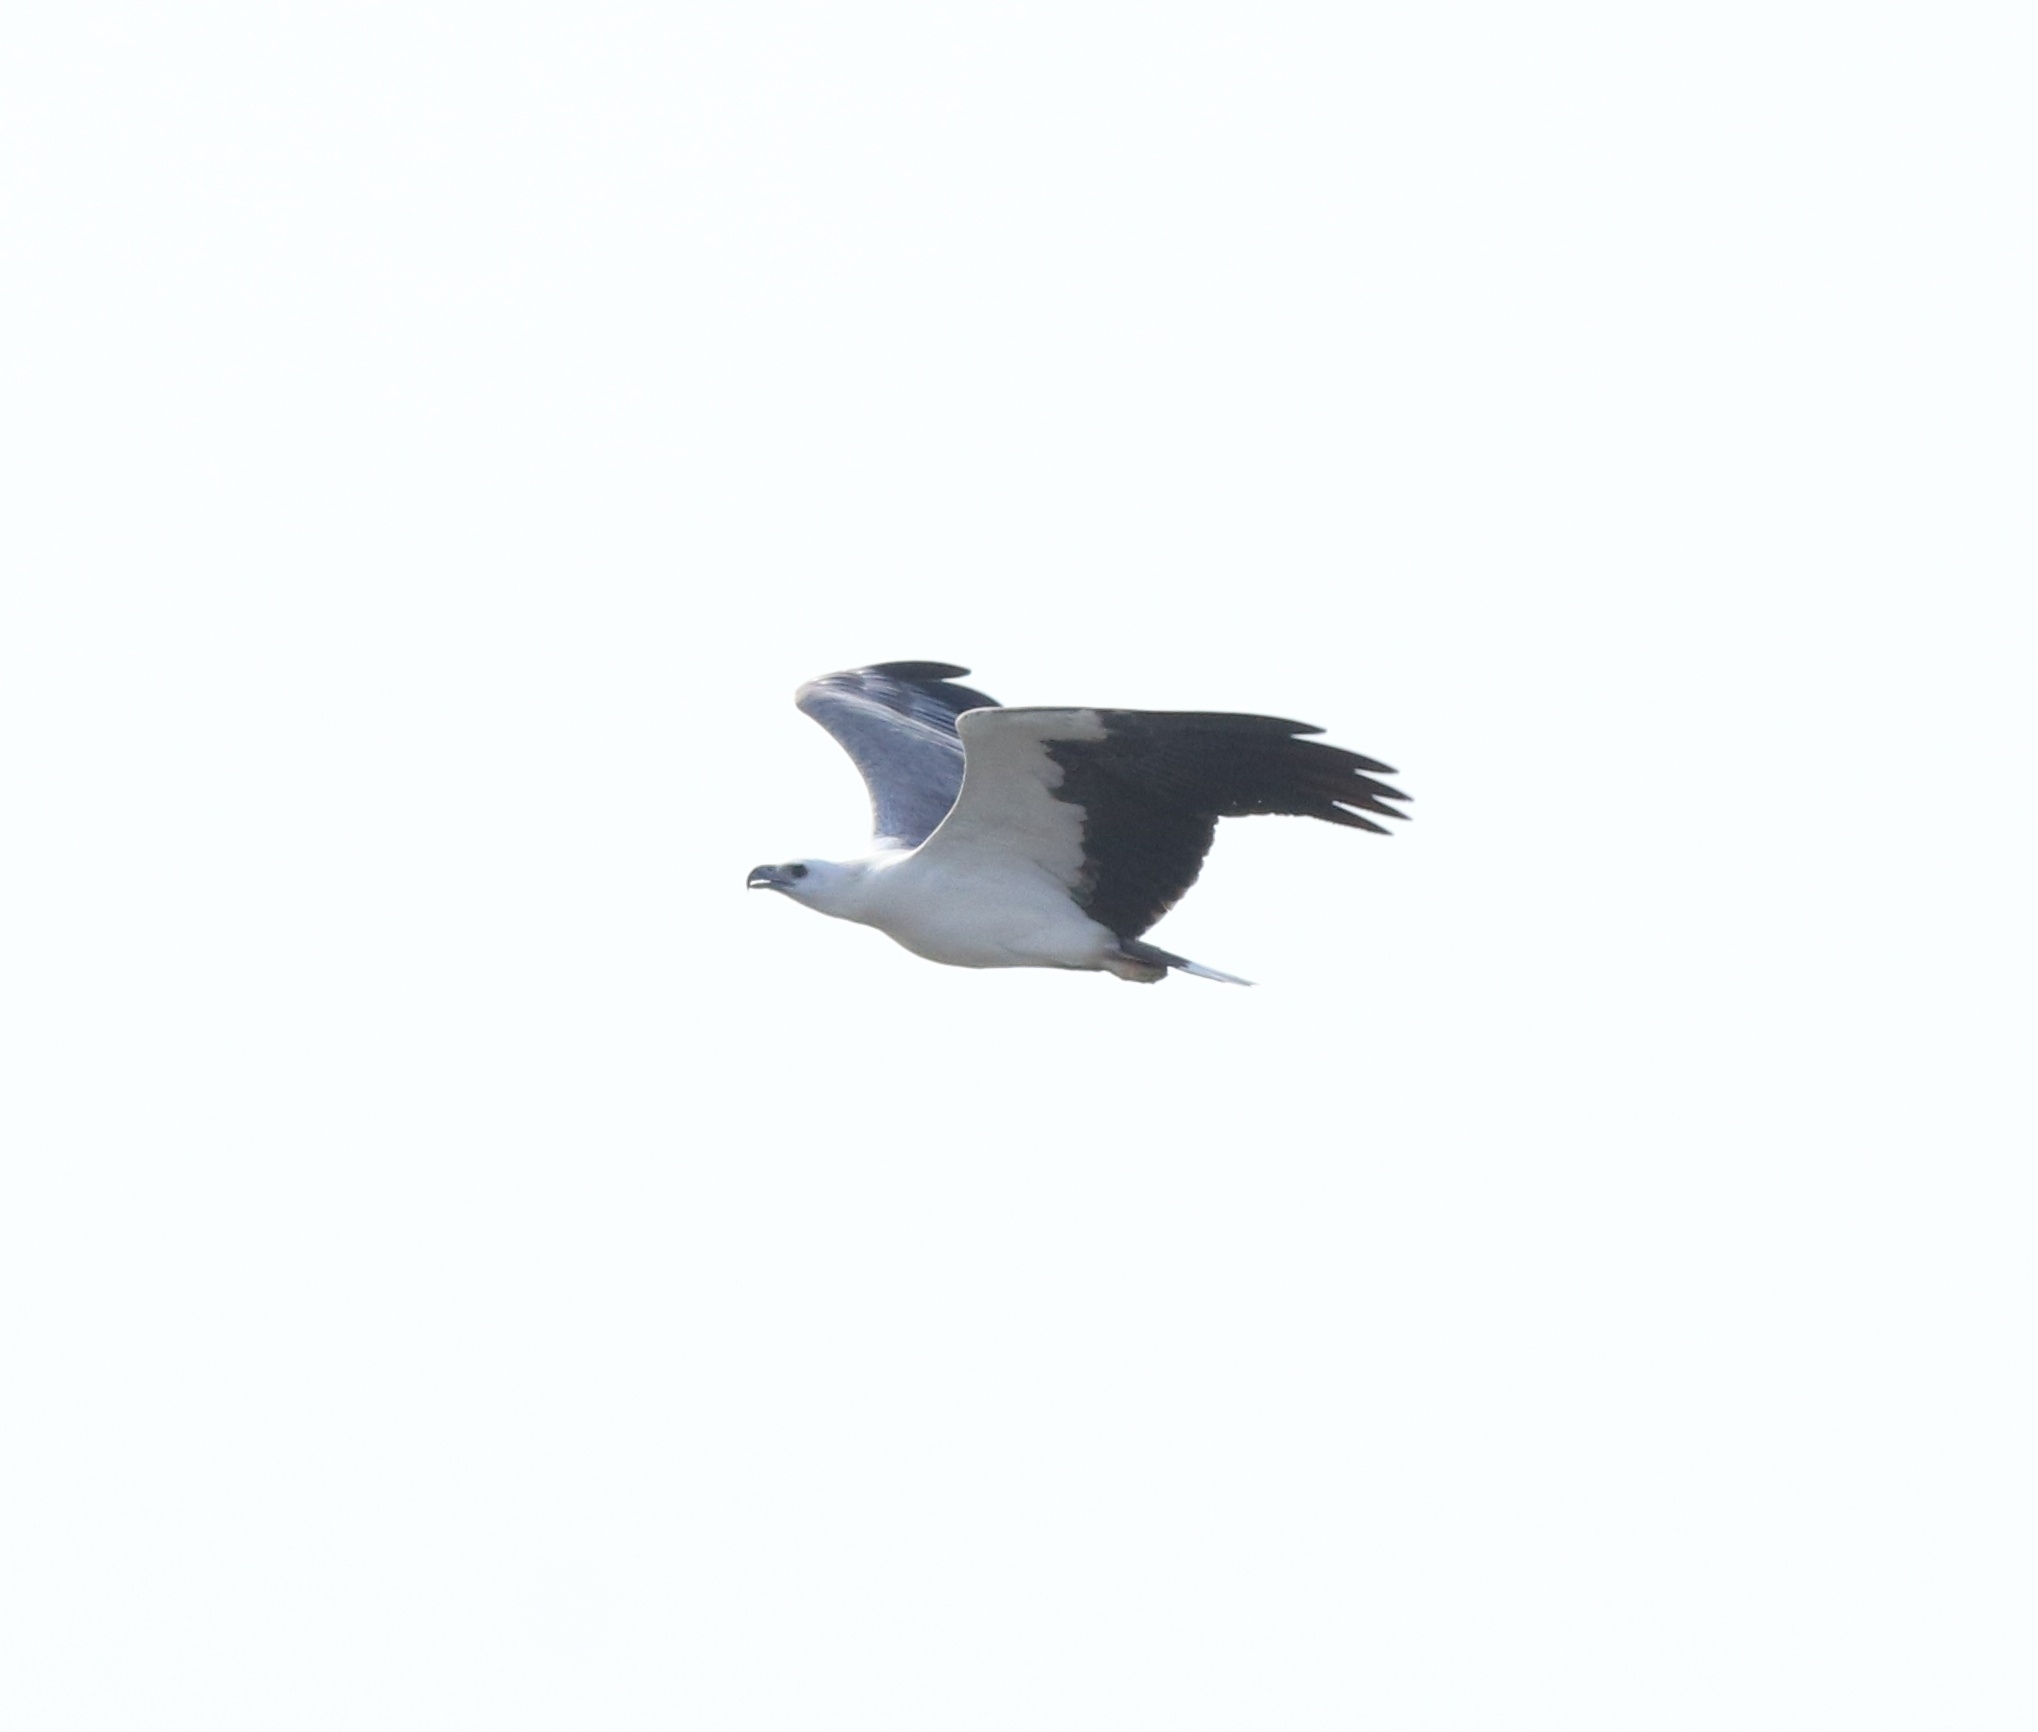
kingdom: Animalia
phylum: Chordata
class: Aves
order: Accipitriformes
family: Accipitridae
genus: Haliaeetus
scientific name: Haliaeetus leucogaster
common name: White-bellied sea eagle
